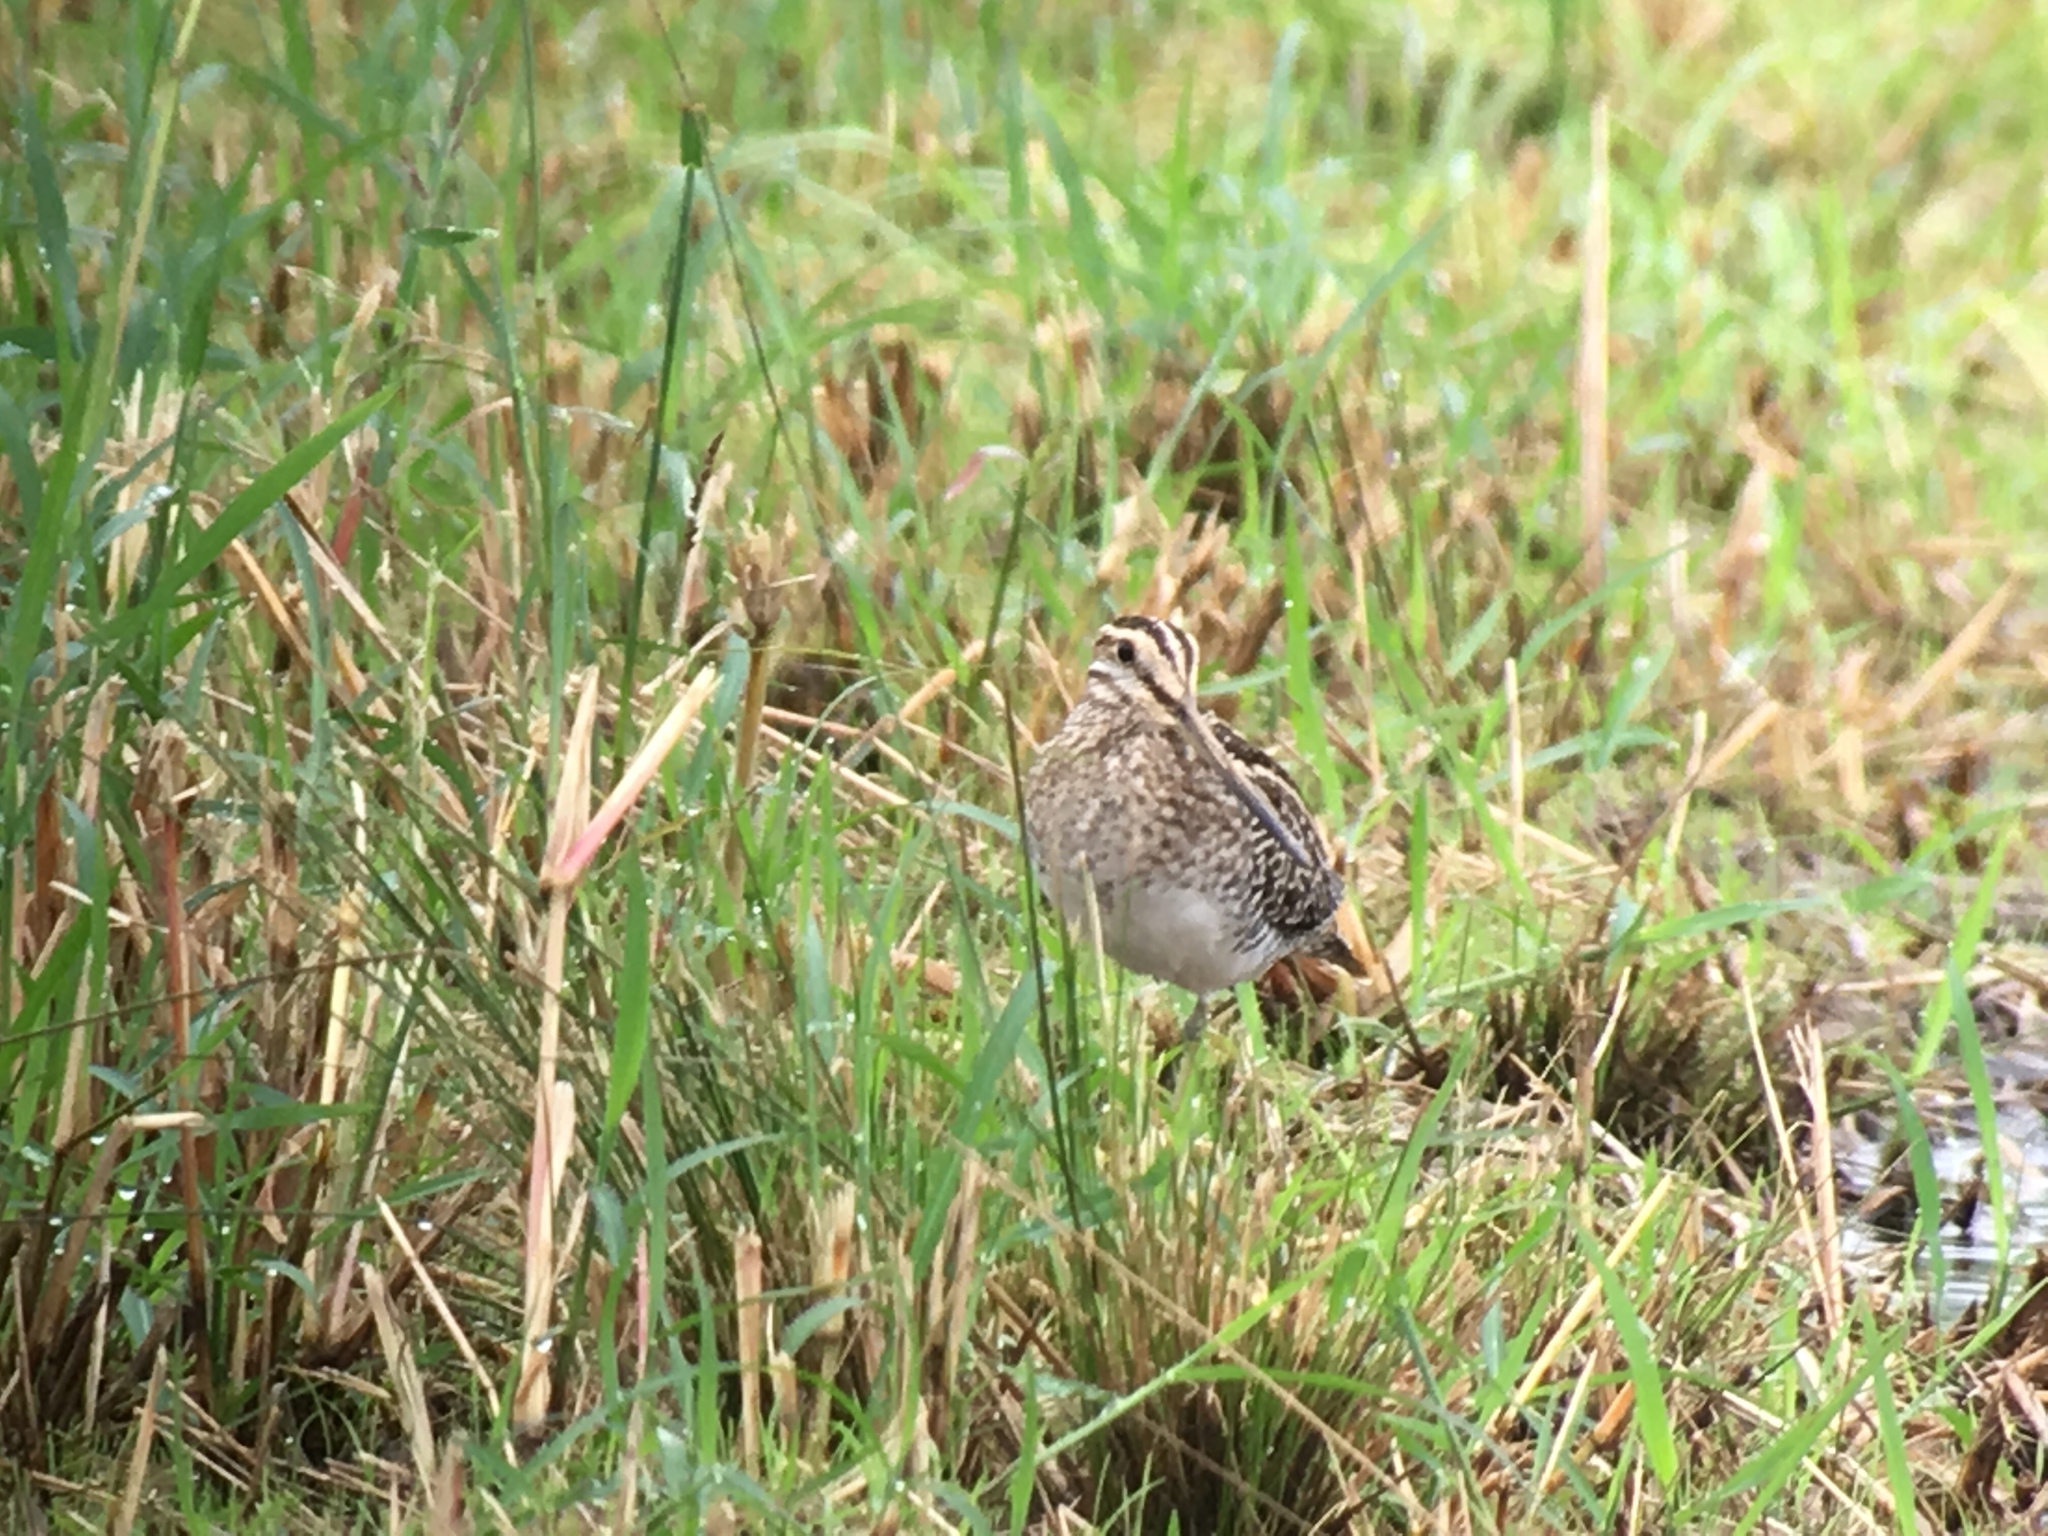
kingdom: Animalia
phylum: Chordata
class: Aves
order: Charadriiformes
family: Scolopacidae
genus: Gallinago
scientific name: Gallinago delicata
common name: Wilson's snipe
